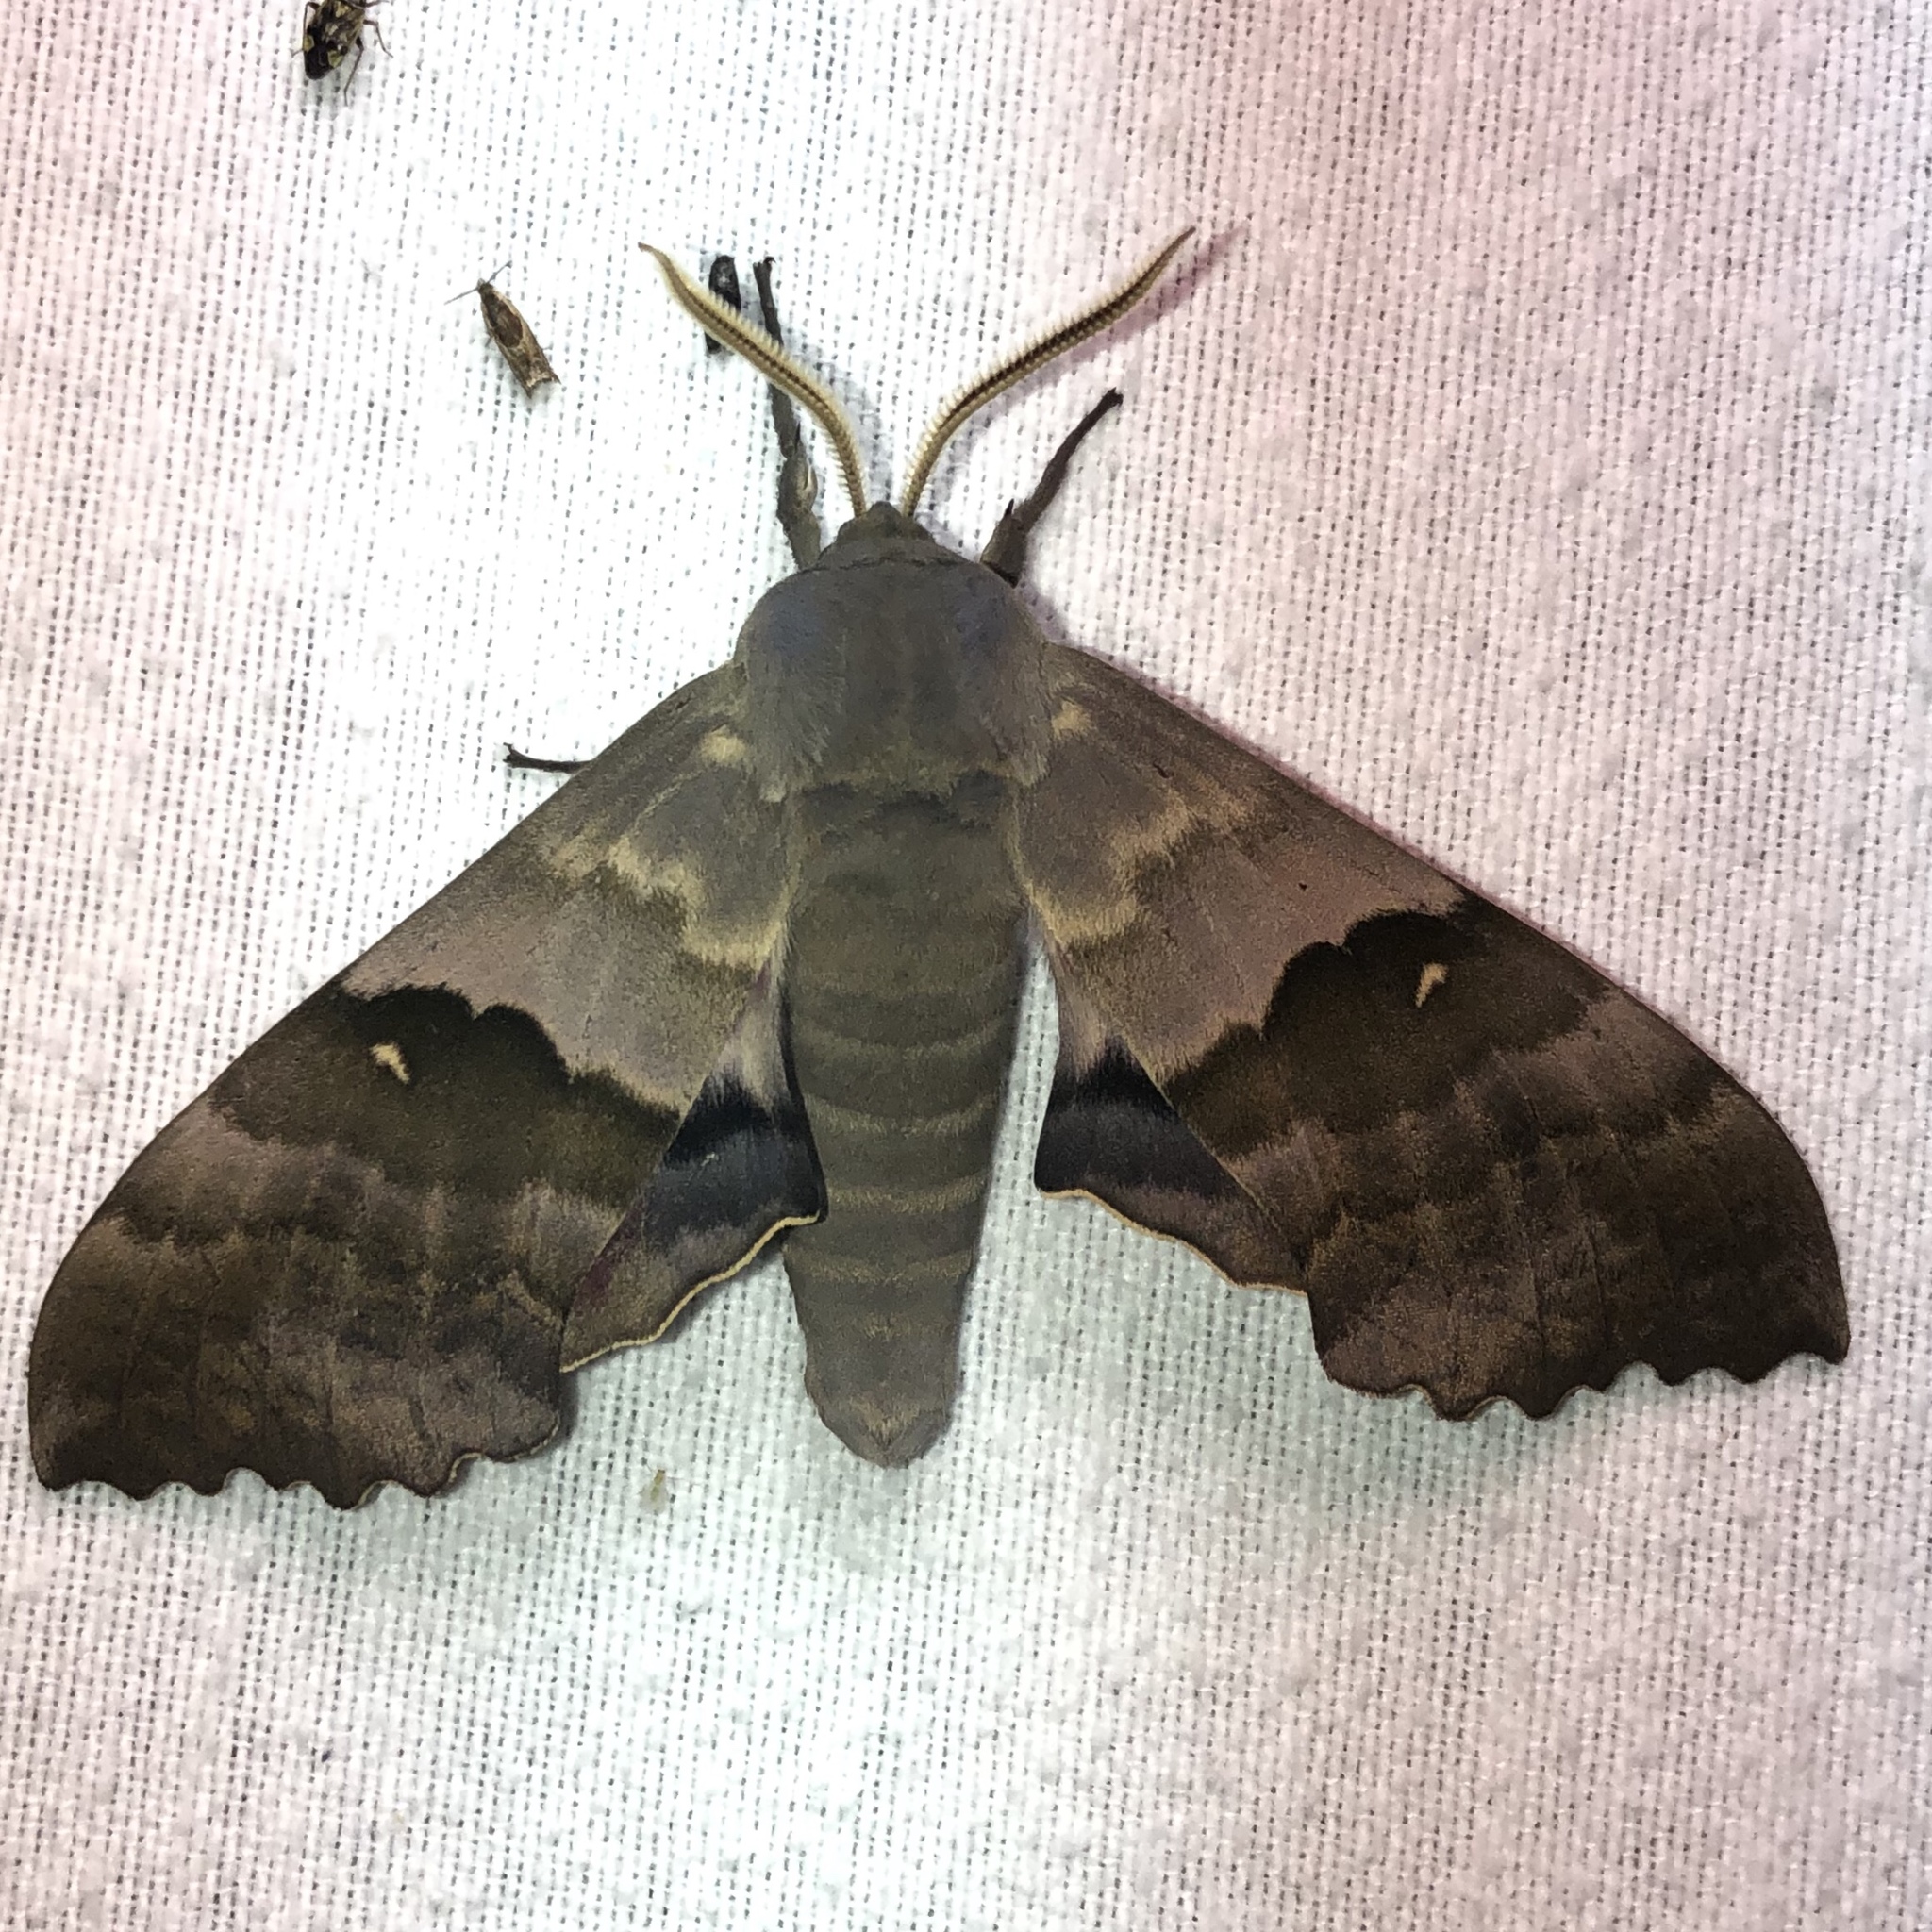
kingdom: Animalia
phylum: Arthropoda
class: Insecta
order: Lepidoptera
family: Sphingidae
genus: Pachysphinx
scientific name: Pachysphinx modesta
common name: Big poplar sphinx
